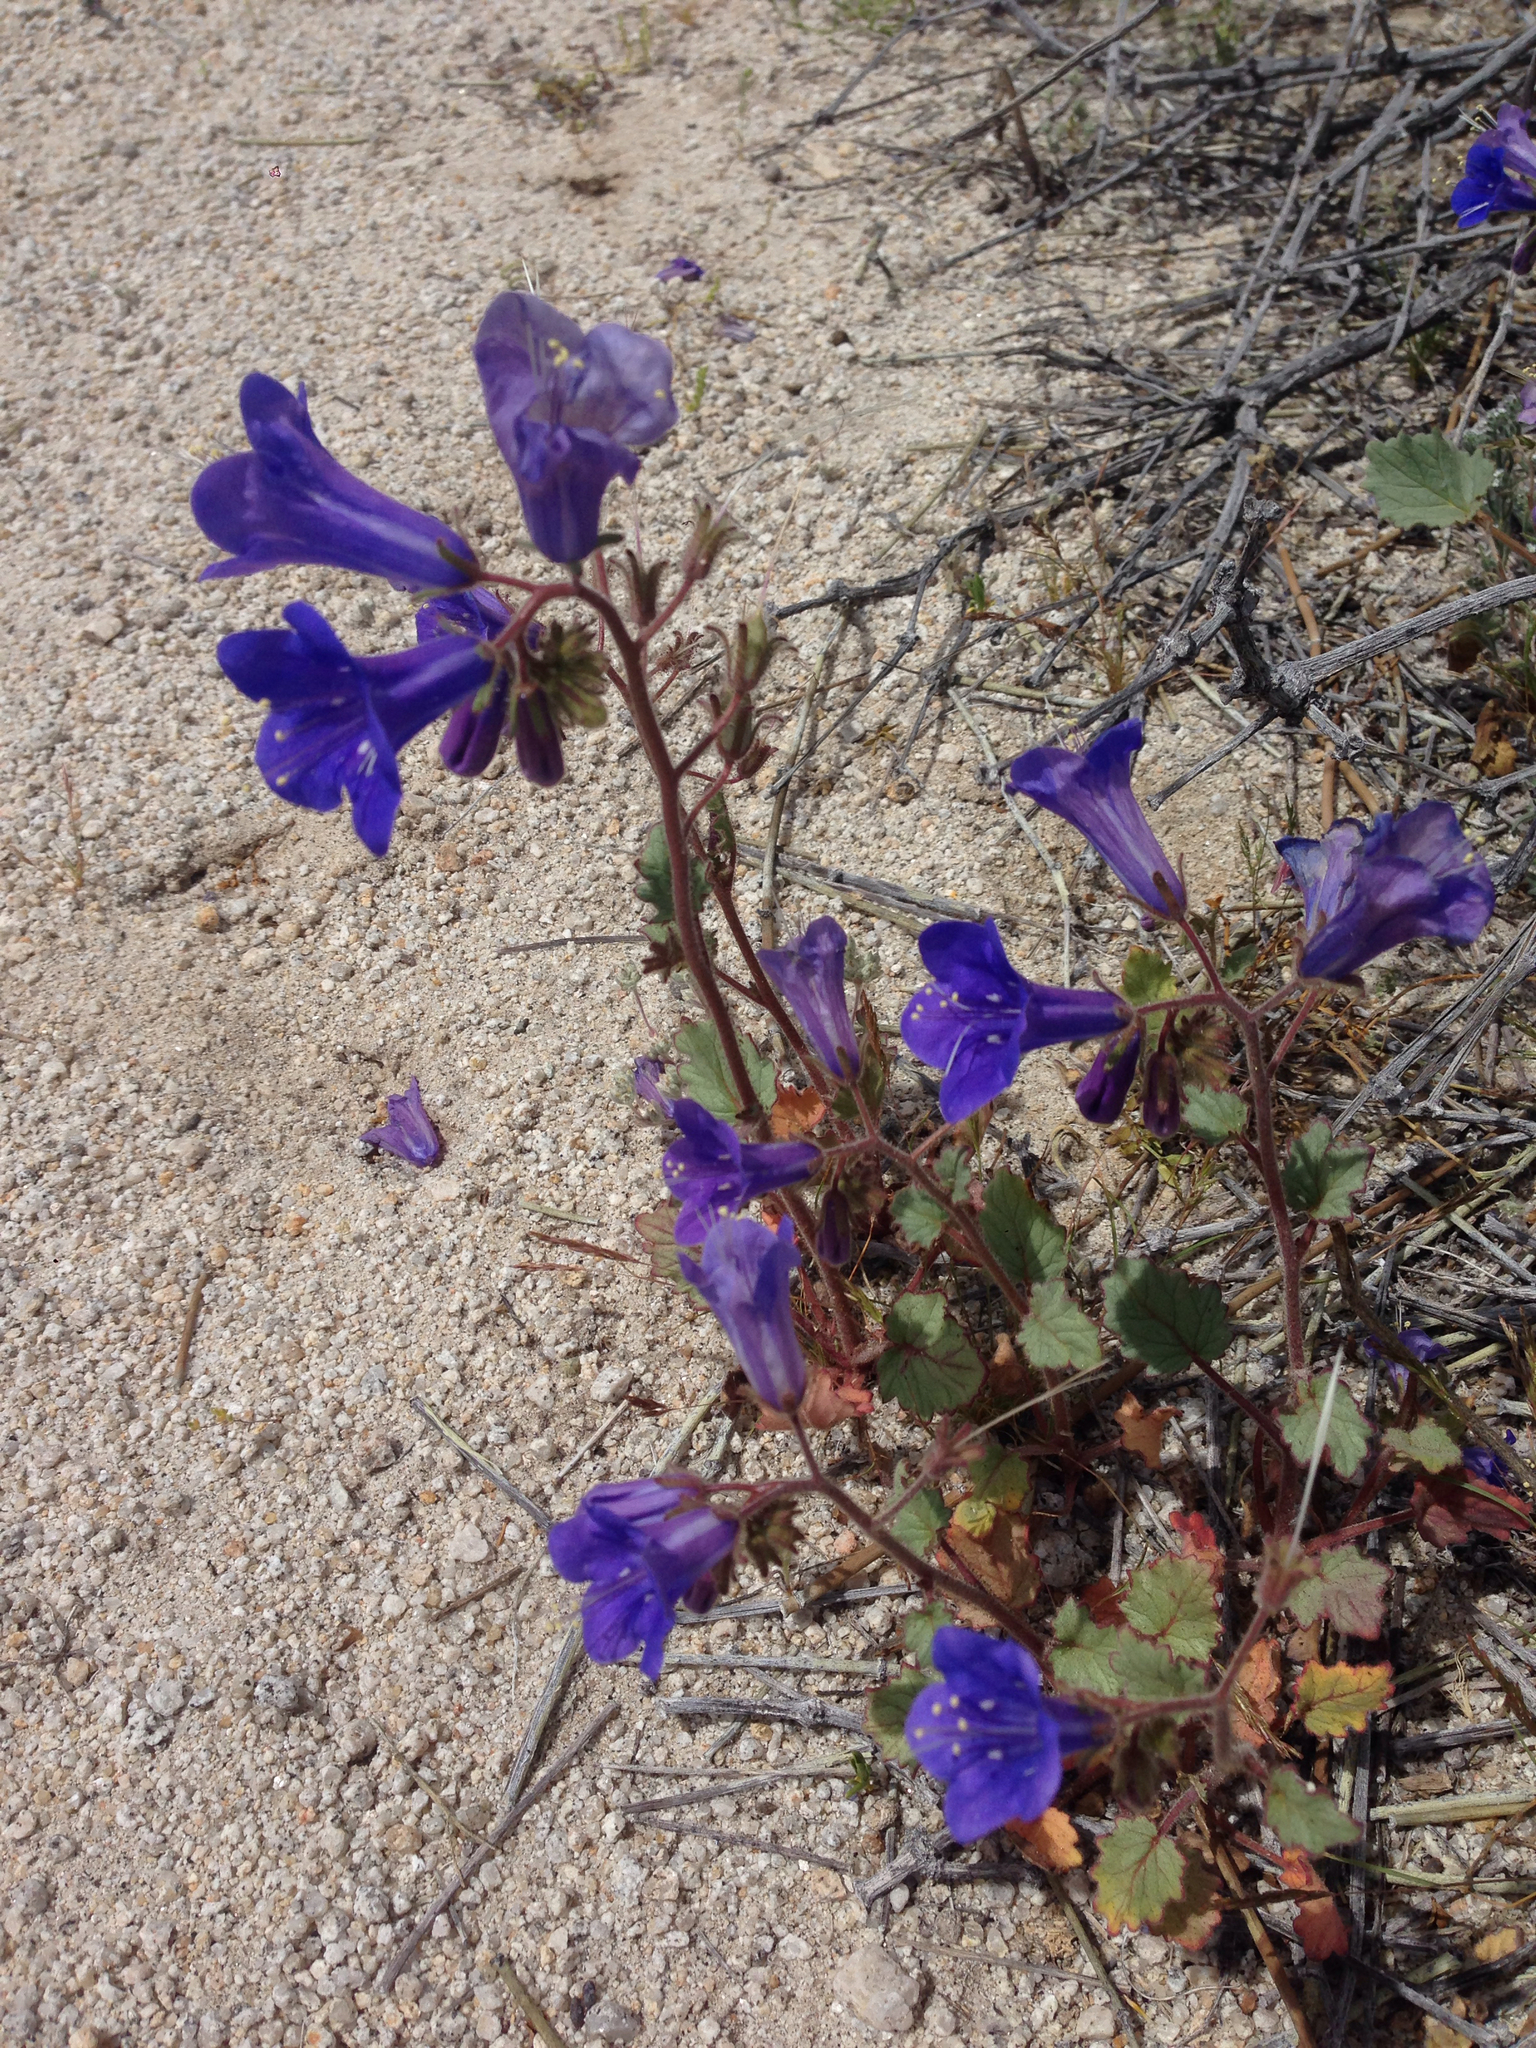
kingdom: Plantae
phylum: Tracheophyta
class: Magnoliopsida
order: Boraginales
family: Hydrophyllaceae
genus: Phacelia
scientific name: Phacelia campanularia
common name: California bluebell
